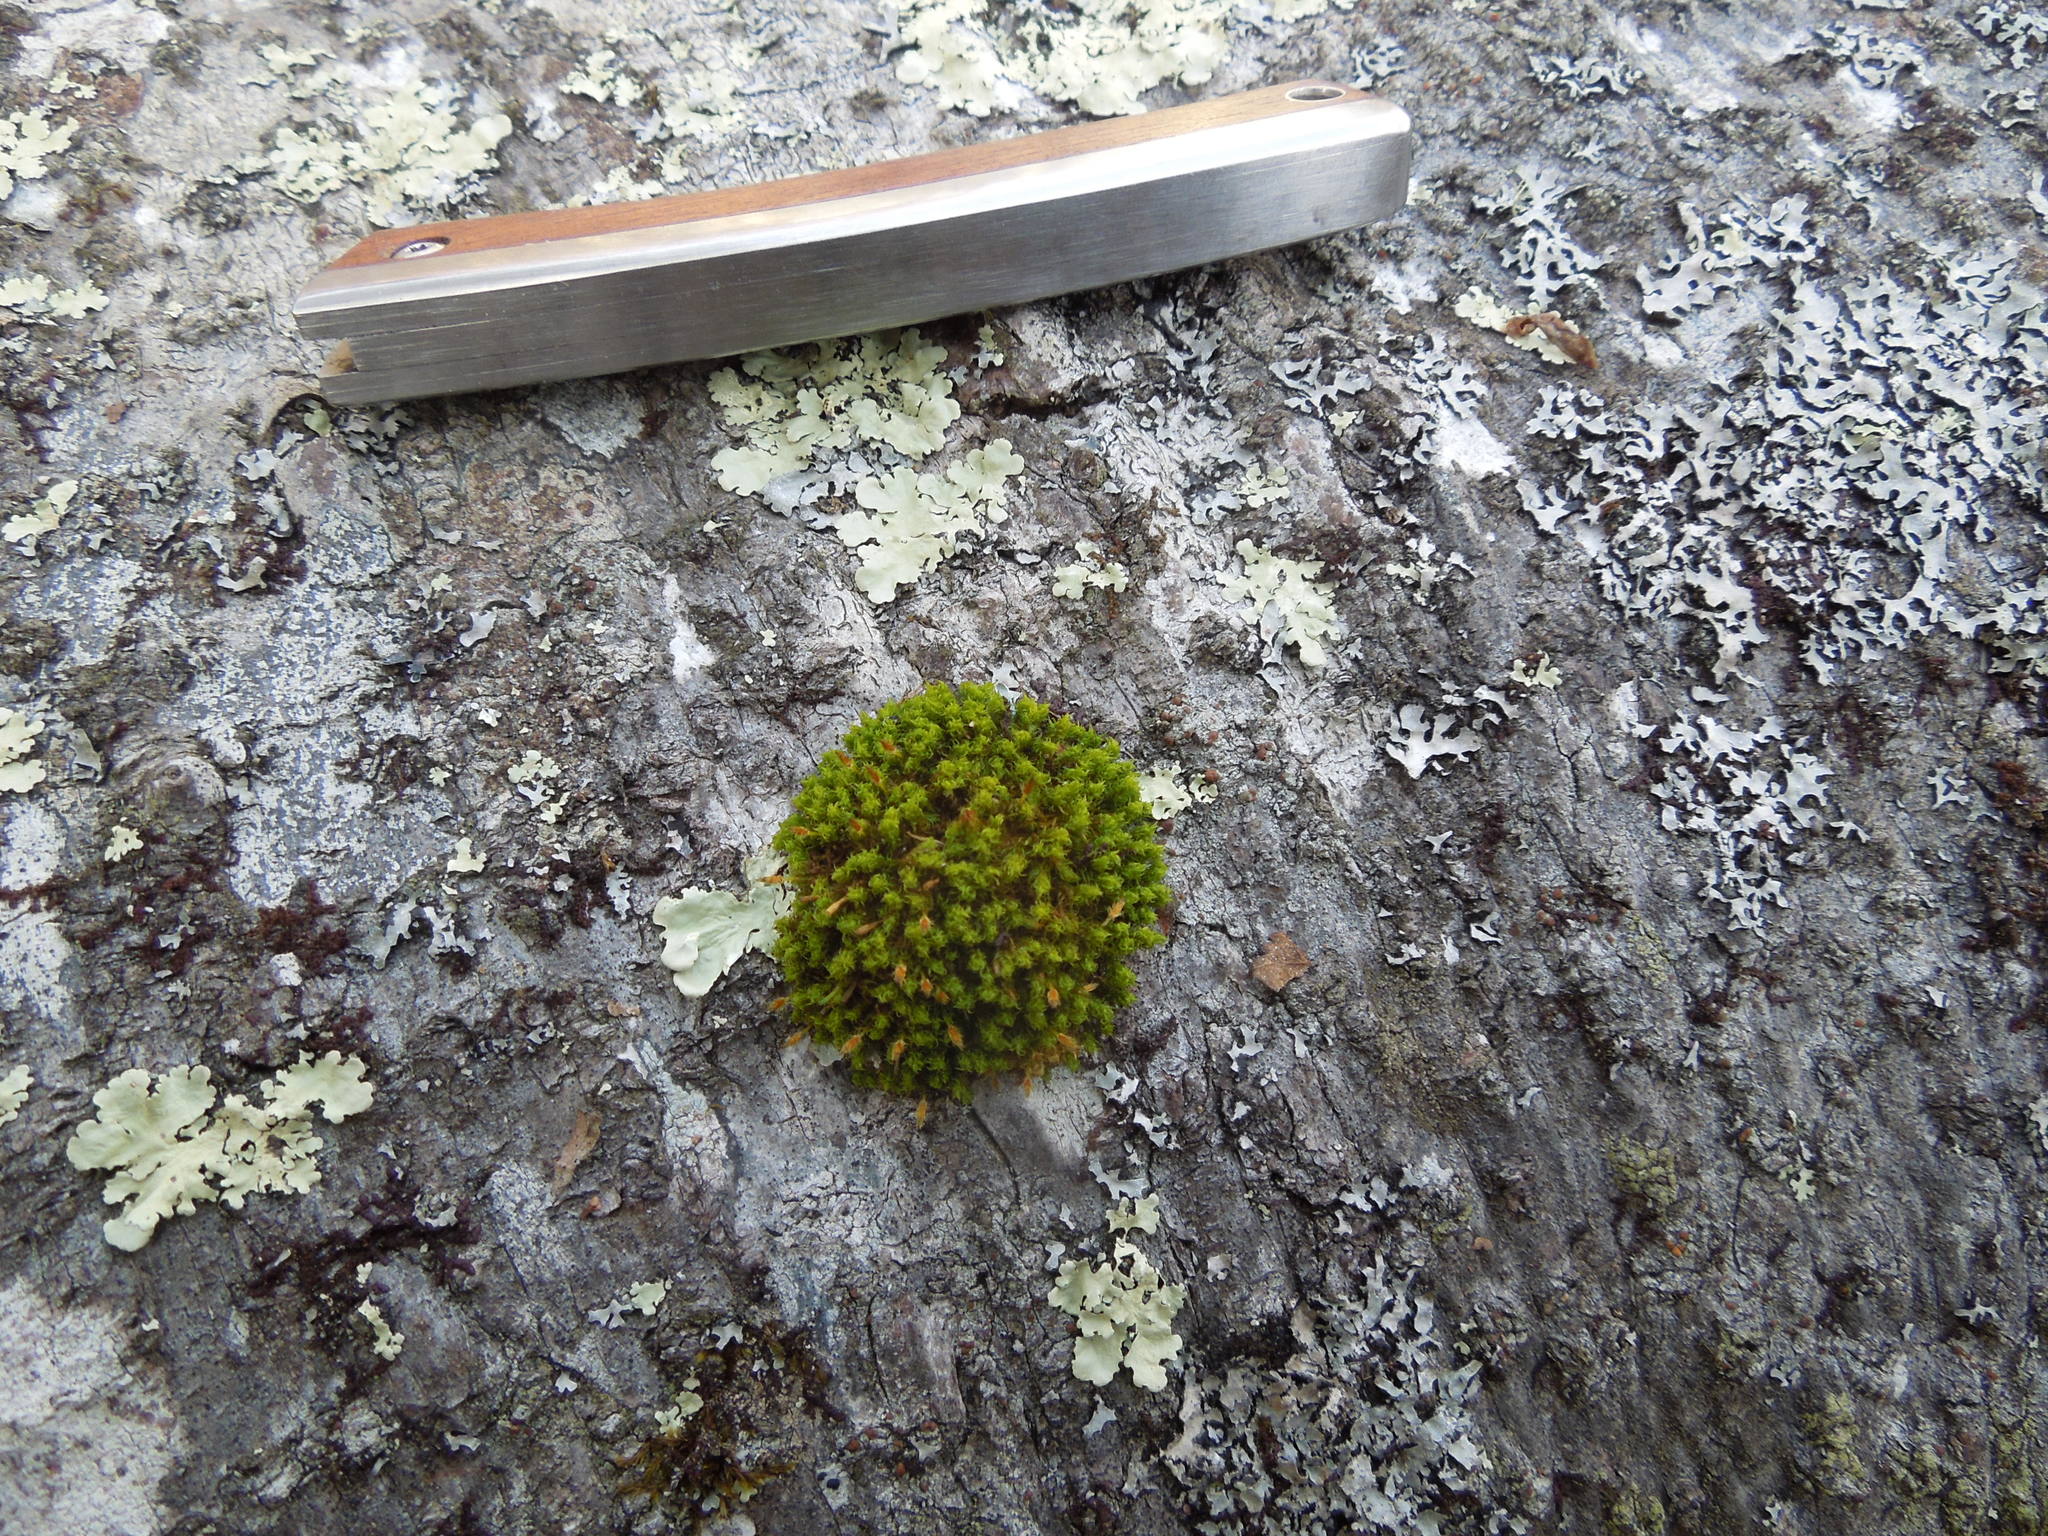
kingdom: Plantae
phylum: Bryophyta
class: Bryopsida
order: Orthotrichales
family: Orthotrichaceae
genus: Ulota
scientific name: Ulota intermedia
